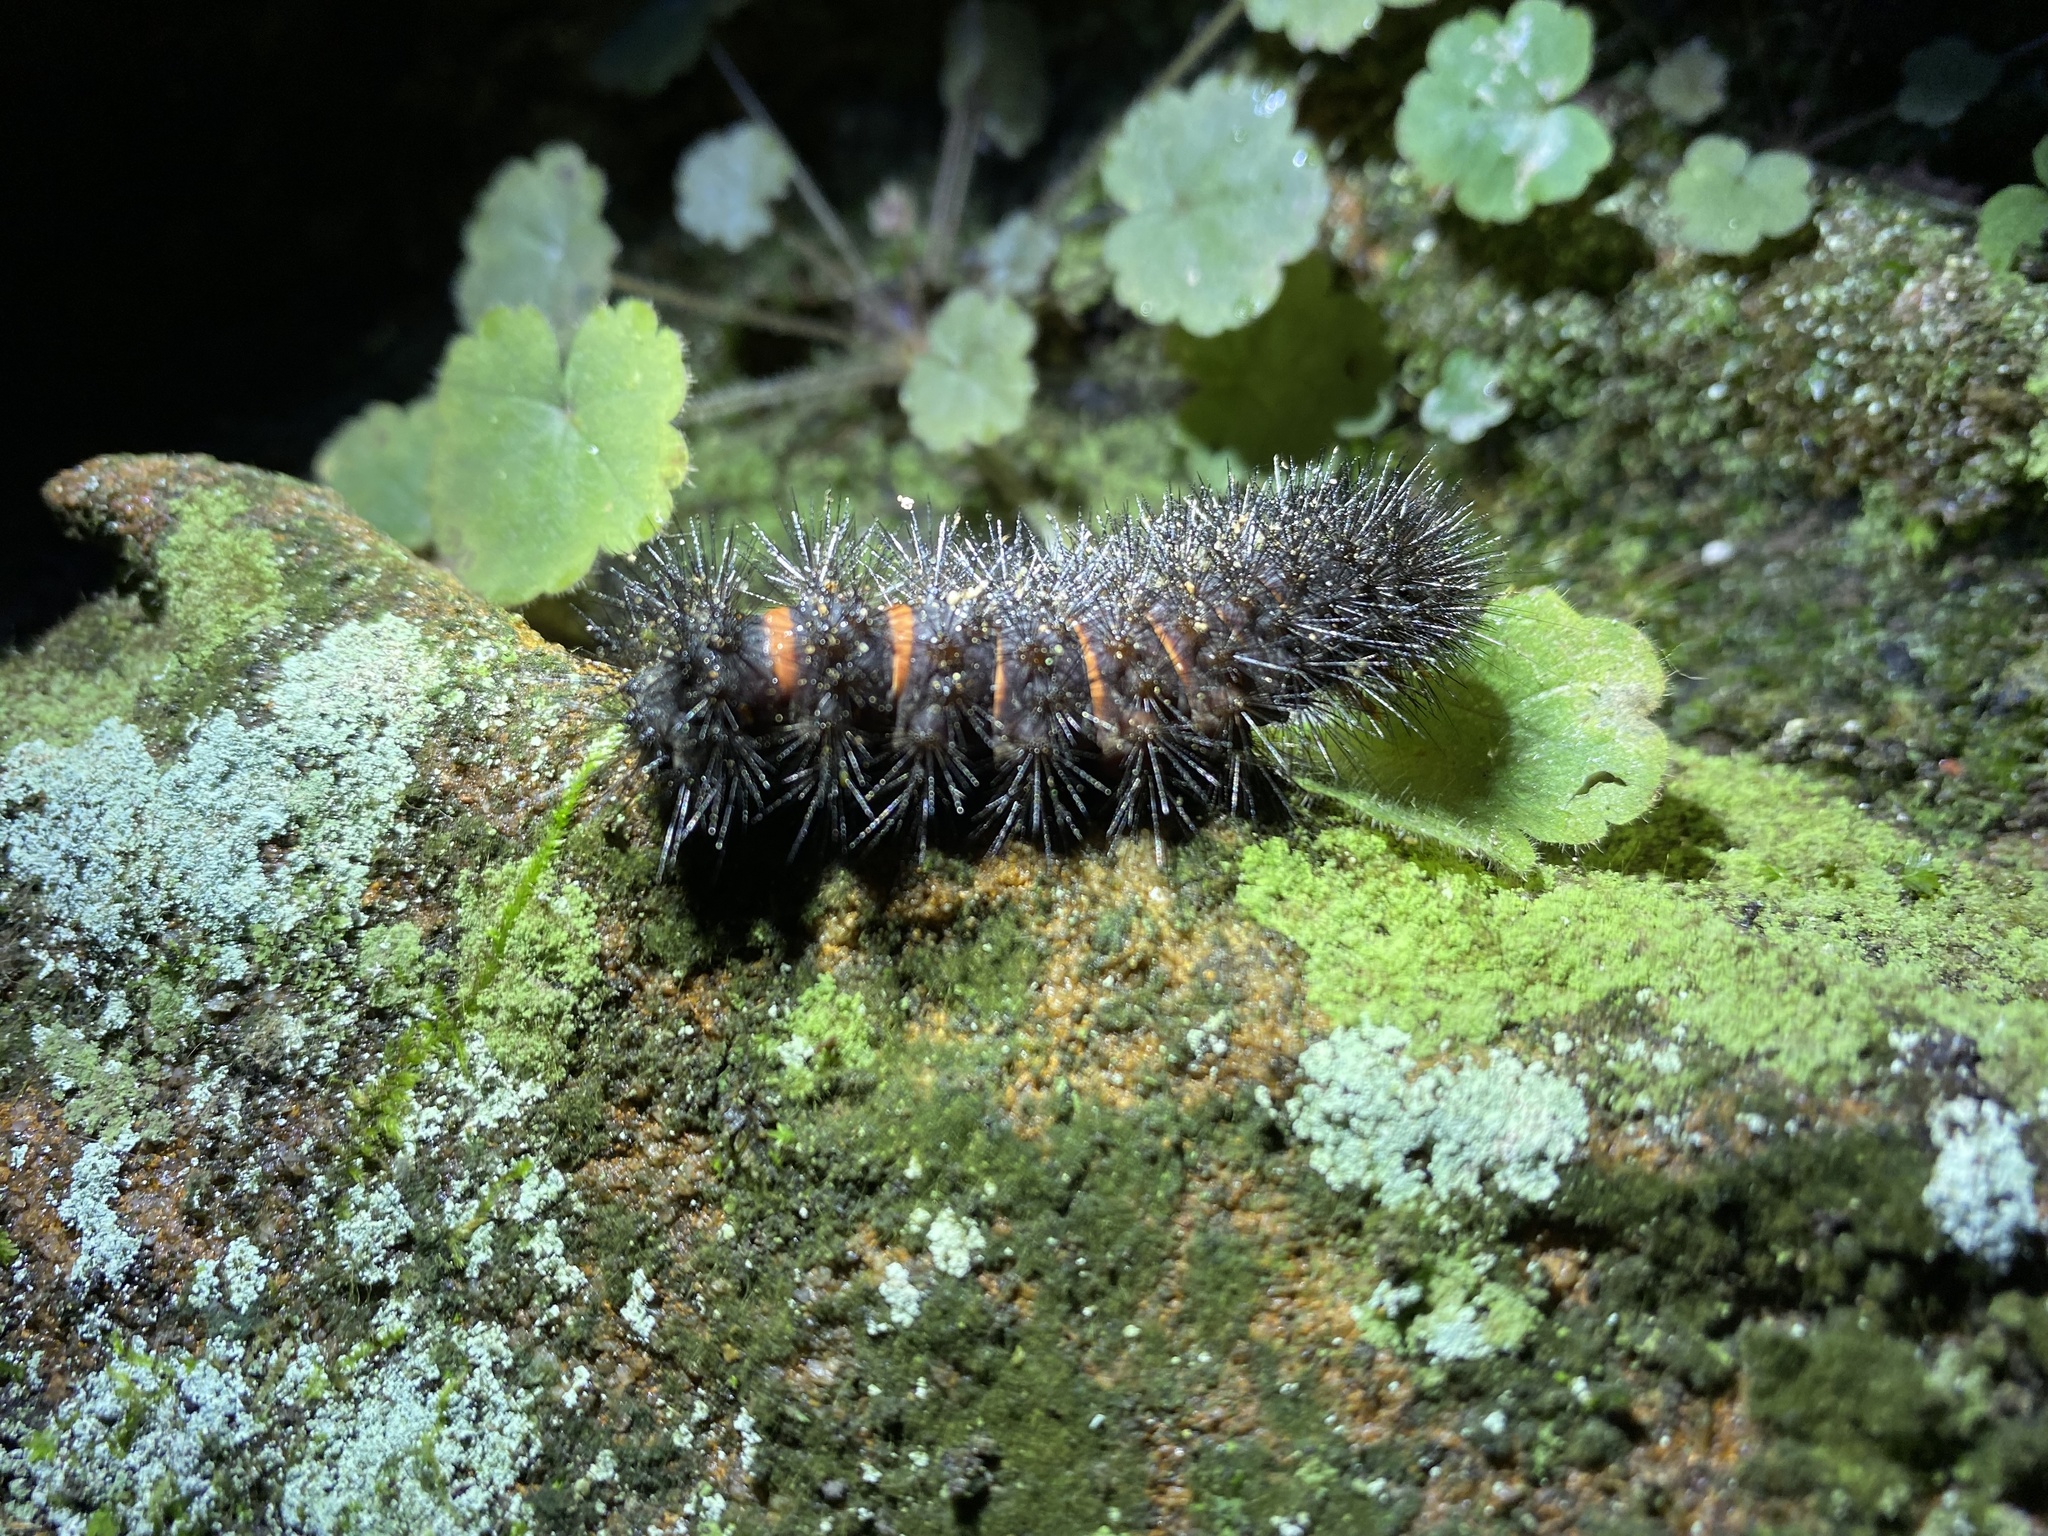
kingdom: Animalia
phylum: Arthropoda
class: Insecta
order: Lepidoptera
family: Erebidae
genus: Hypercompe
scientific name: Hypercompe scribonia
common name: Giant leopard moth
